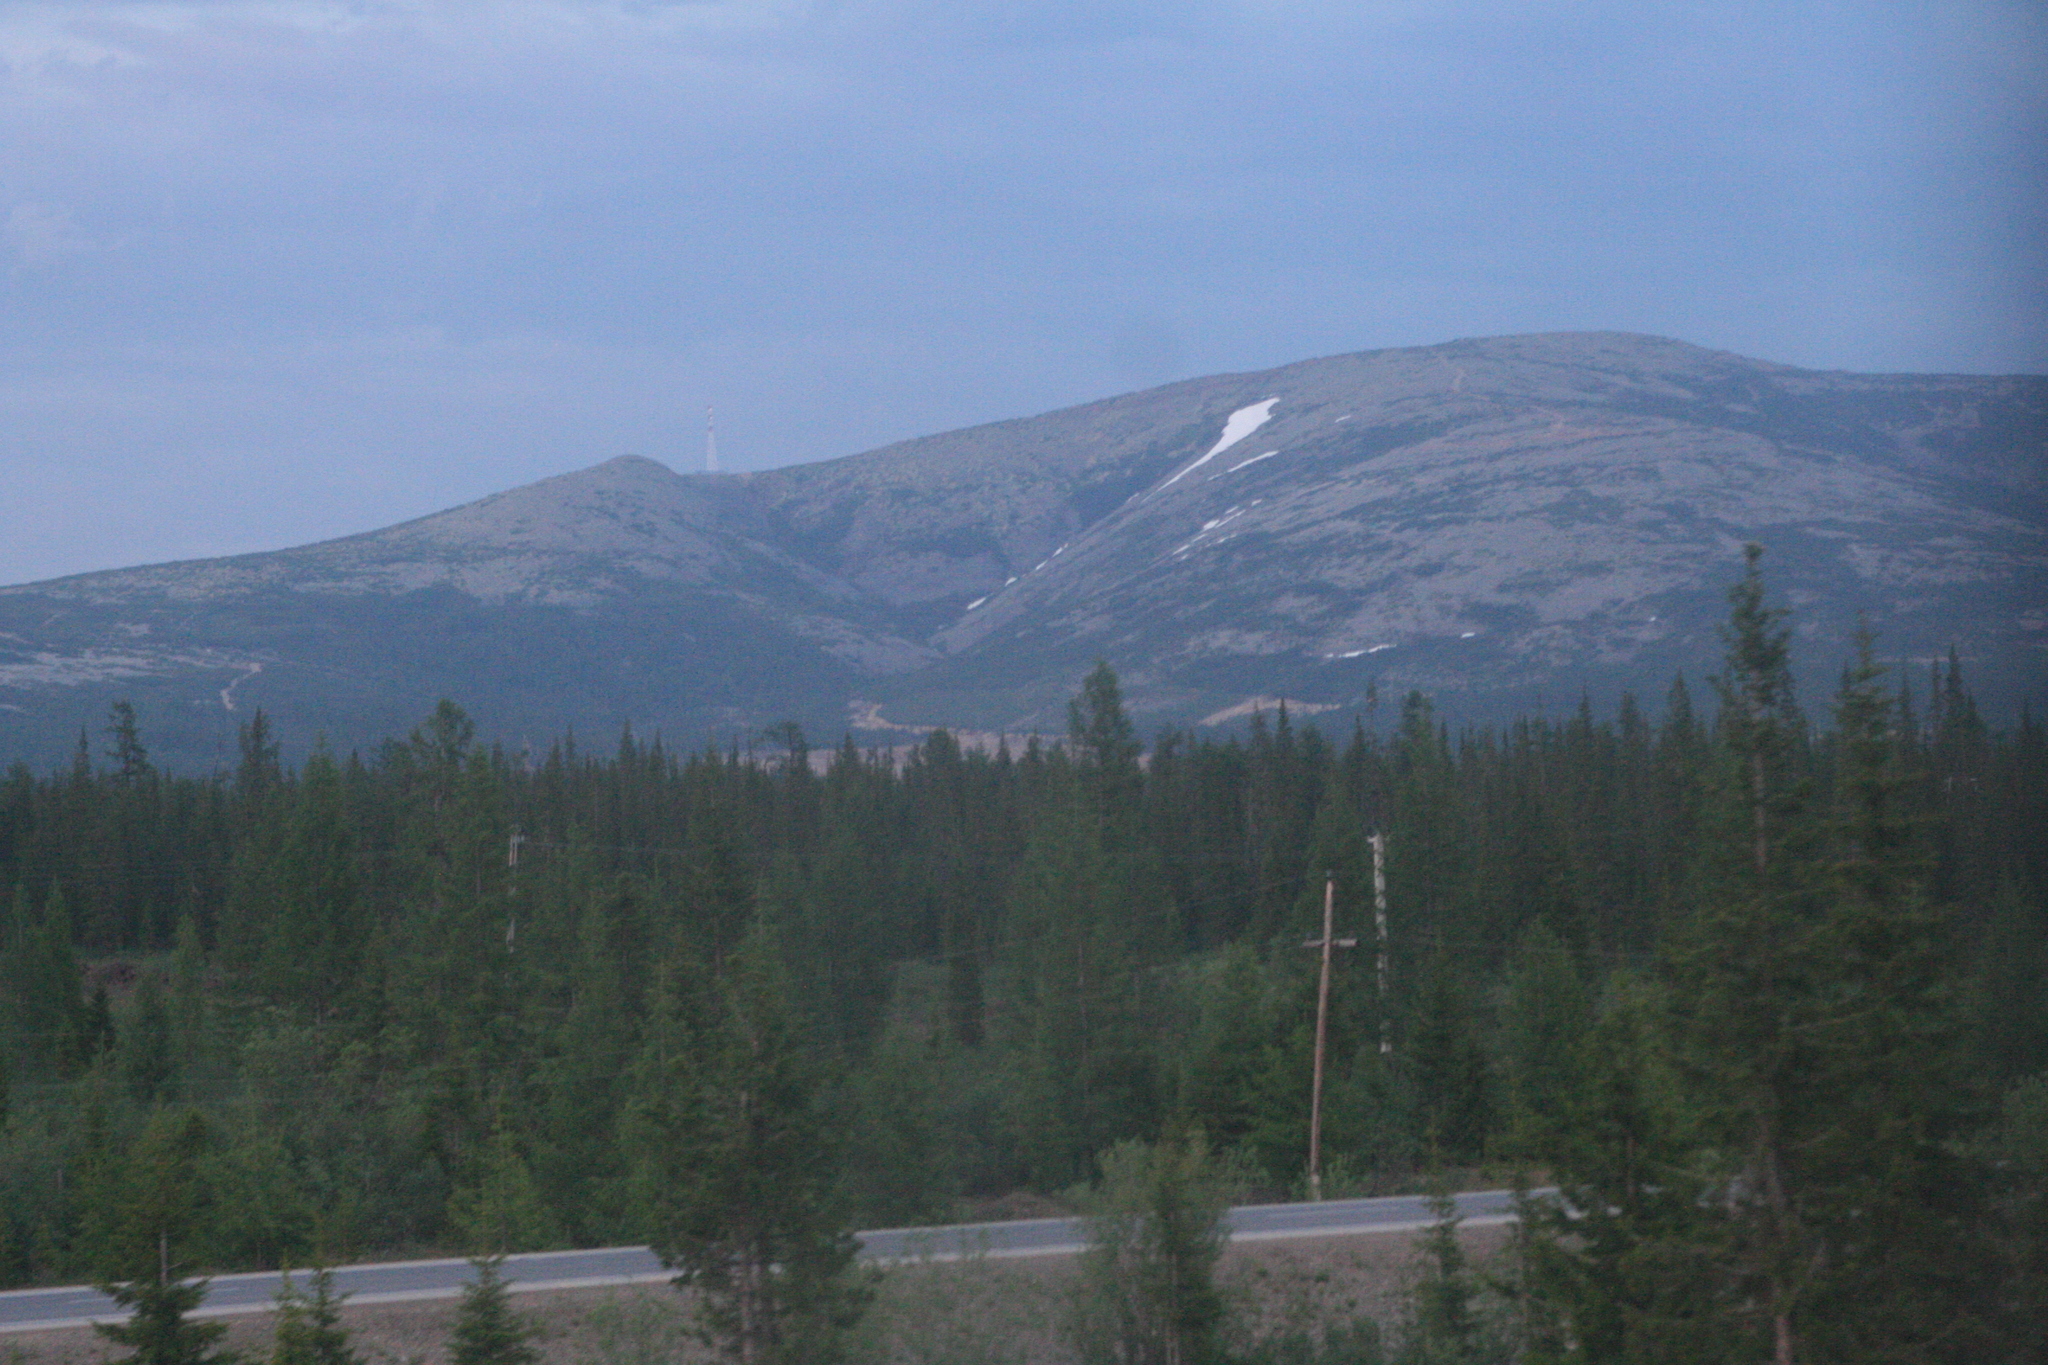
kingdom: Plantae
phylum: Tracheophyta
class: Pinopsida
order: Pinales
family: Pinaceae
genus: Picea
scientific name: Picea obovata
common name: Siberian spruce
